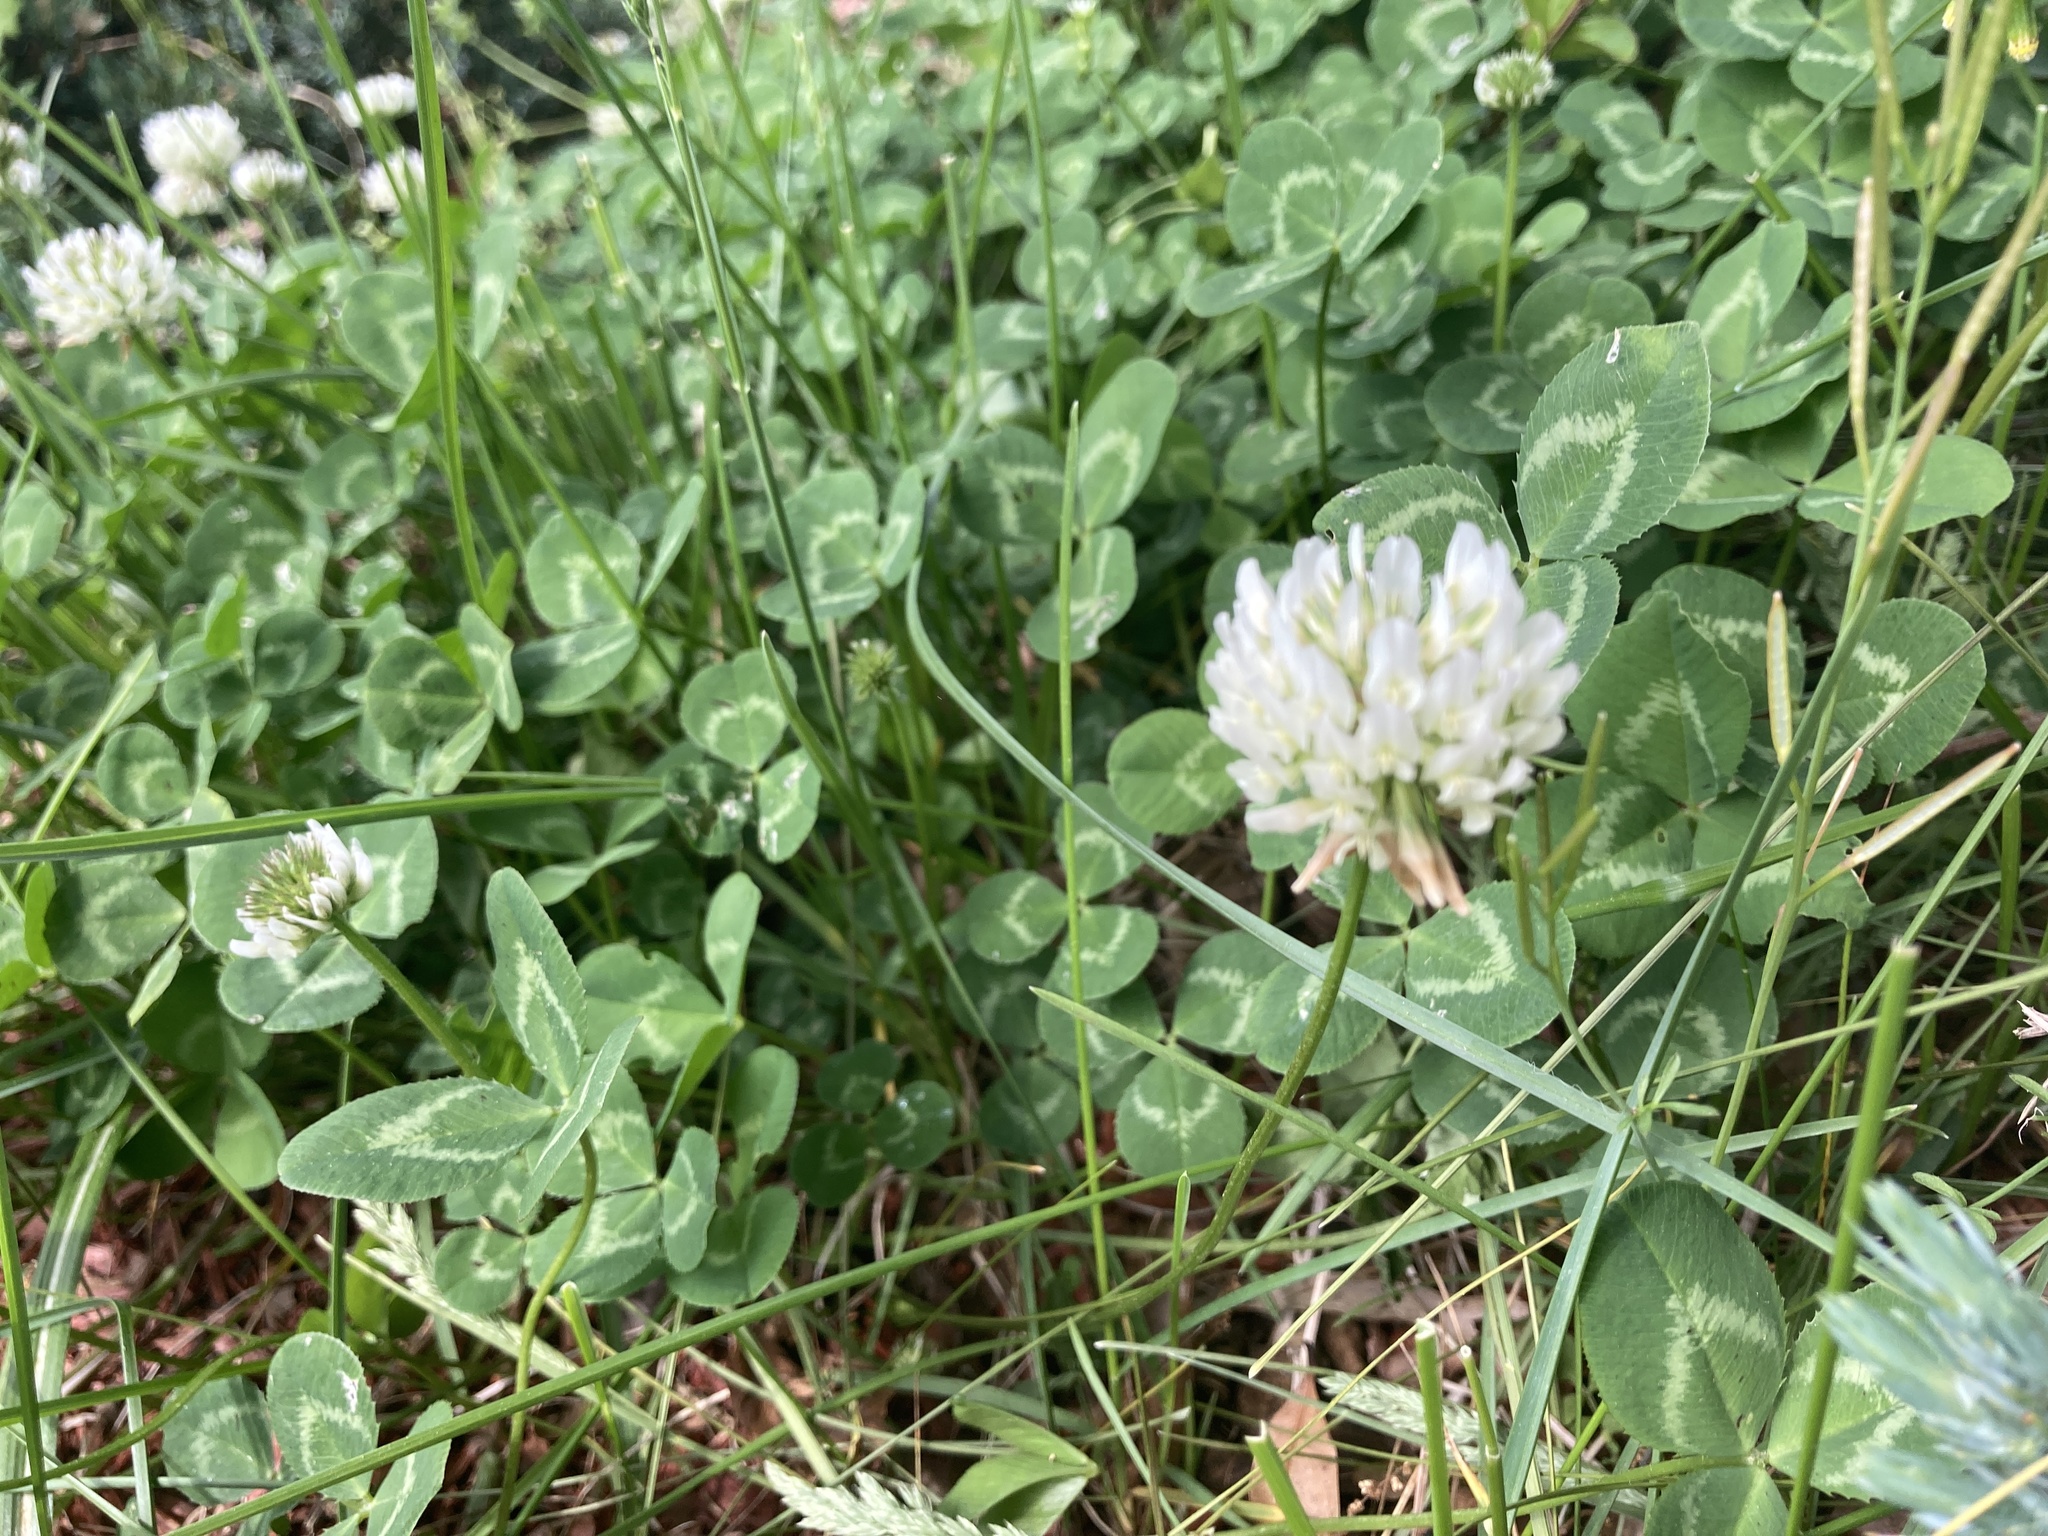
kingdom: Plantae
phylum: Tracheophyta
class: Magnoliopsida
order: Fabales
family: Fabaceae
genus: Trifolium
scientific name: Trifolium repens
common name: White clover
